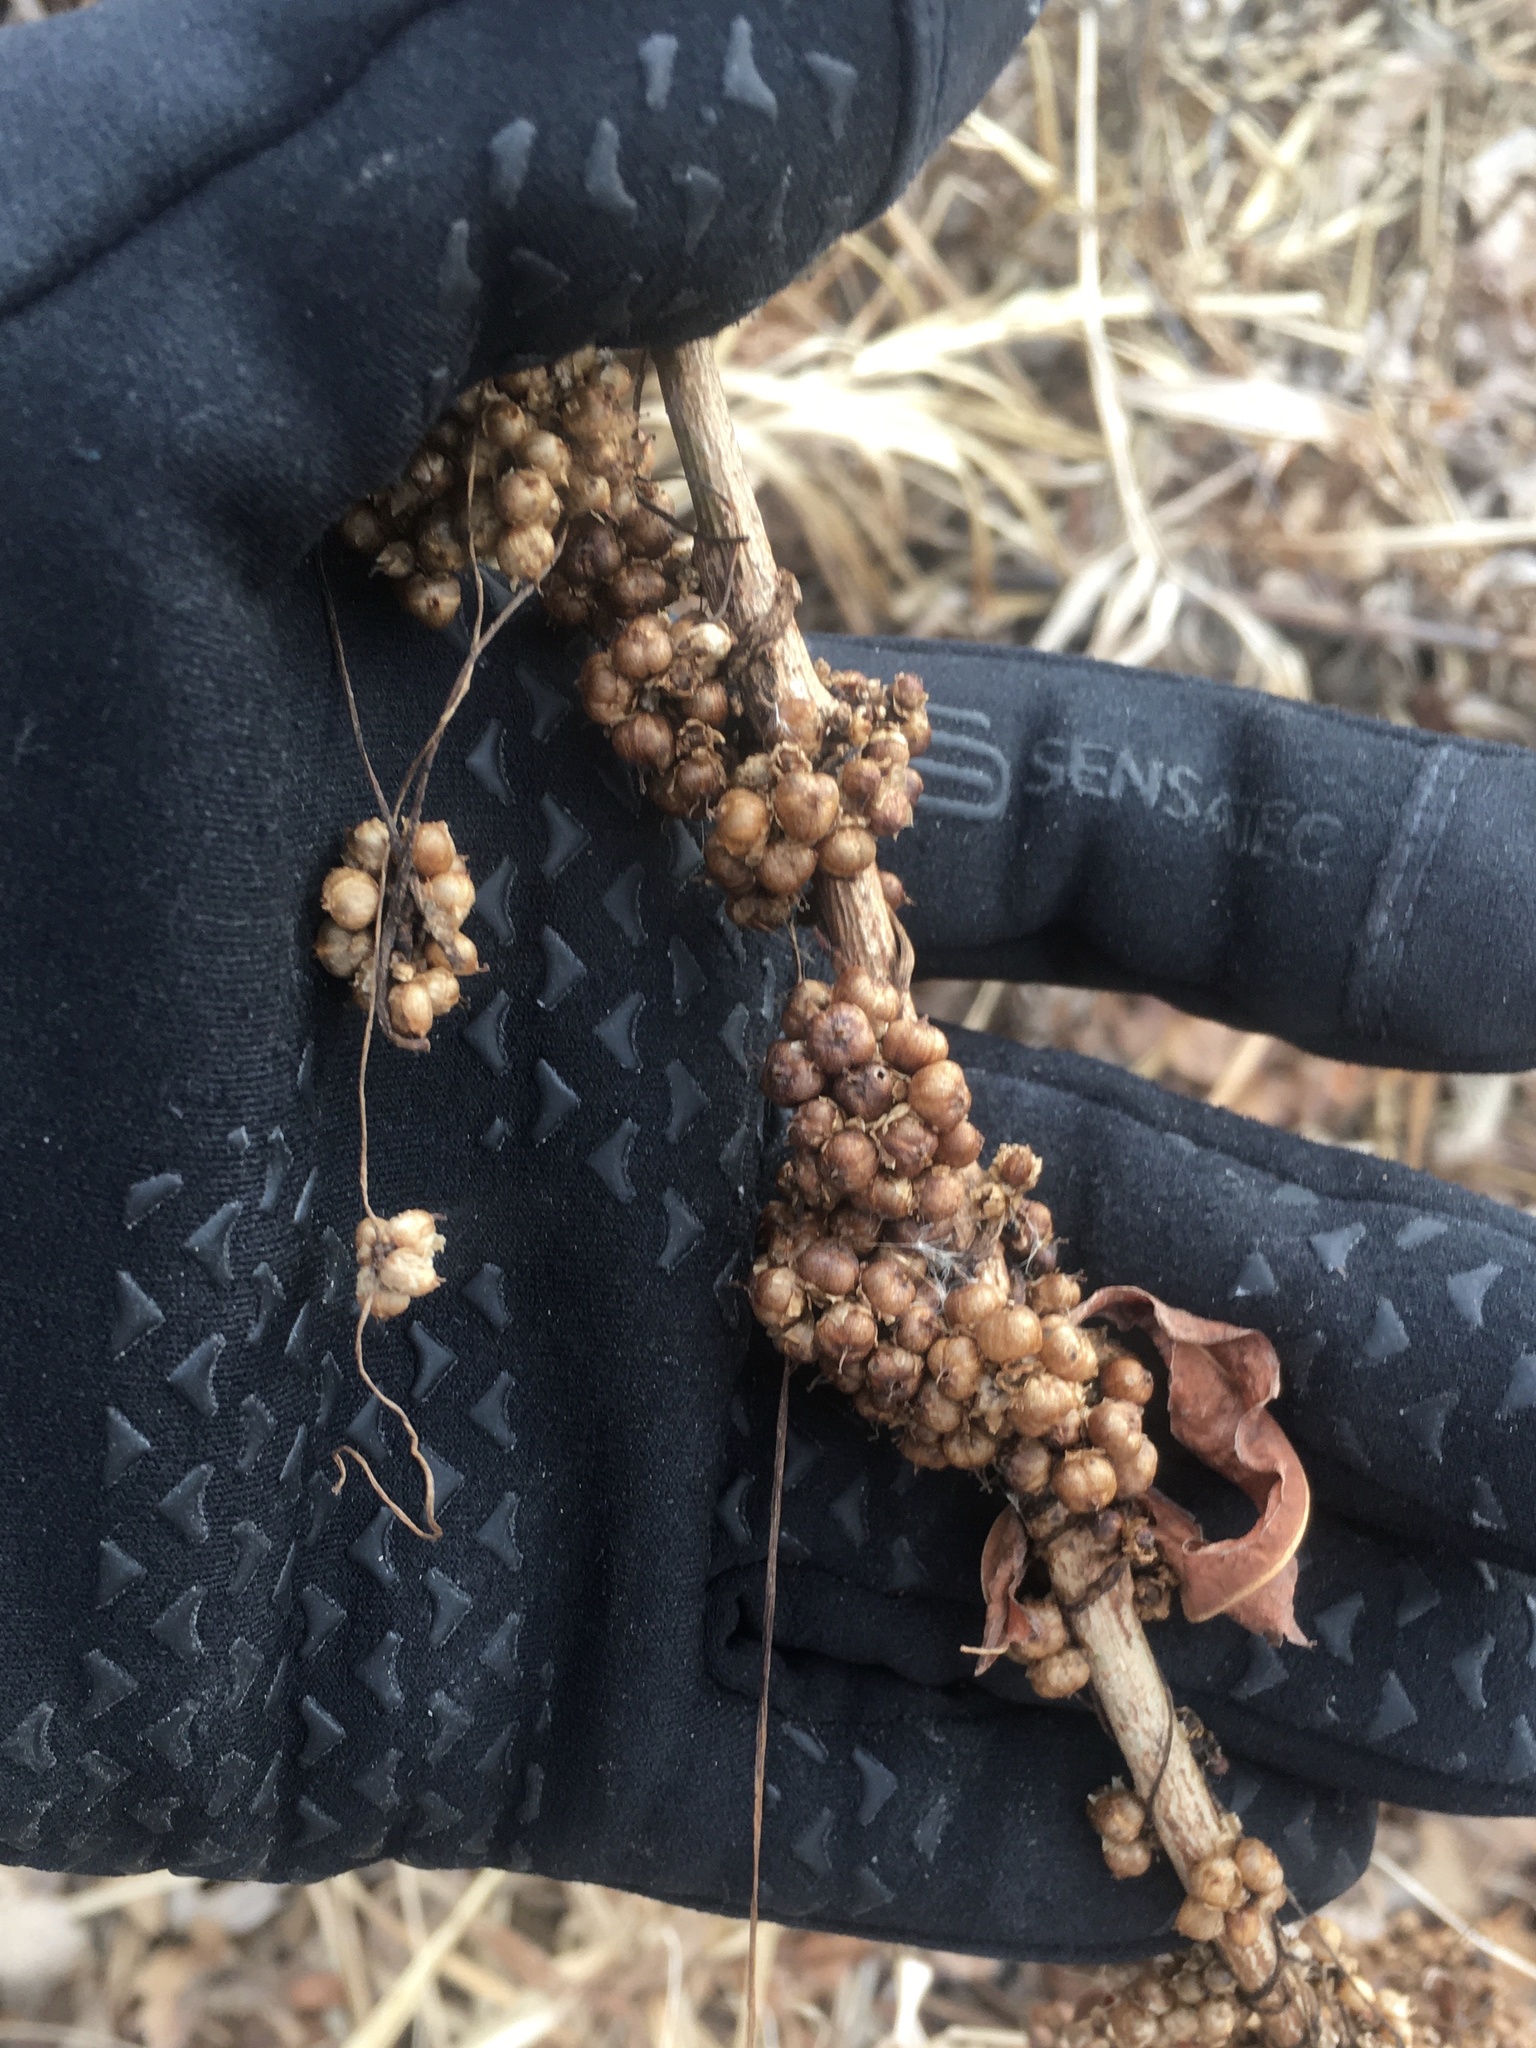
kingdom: Plantae
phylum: Tracheophyta
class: Magnoliopsida
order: Solanales
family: Convolvulaceae
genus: Cuscuta
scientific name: Cuscuta cephalanthi
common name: Button dodder
